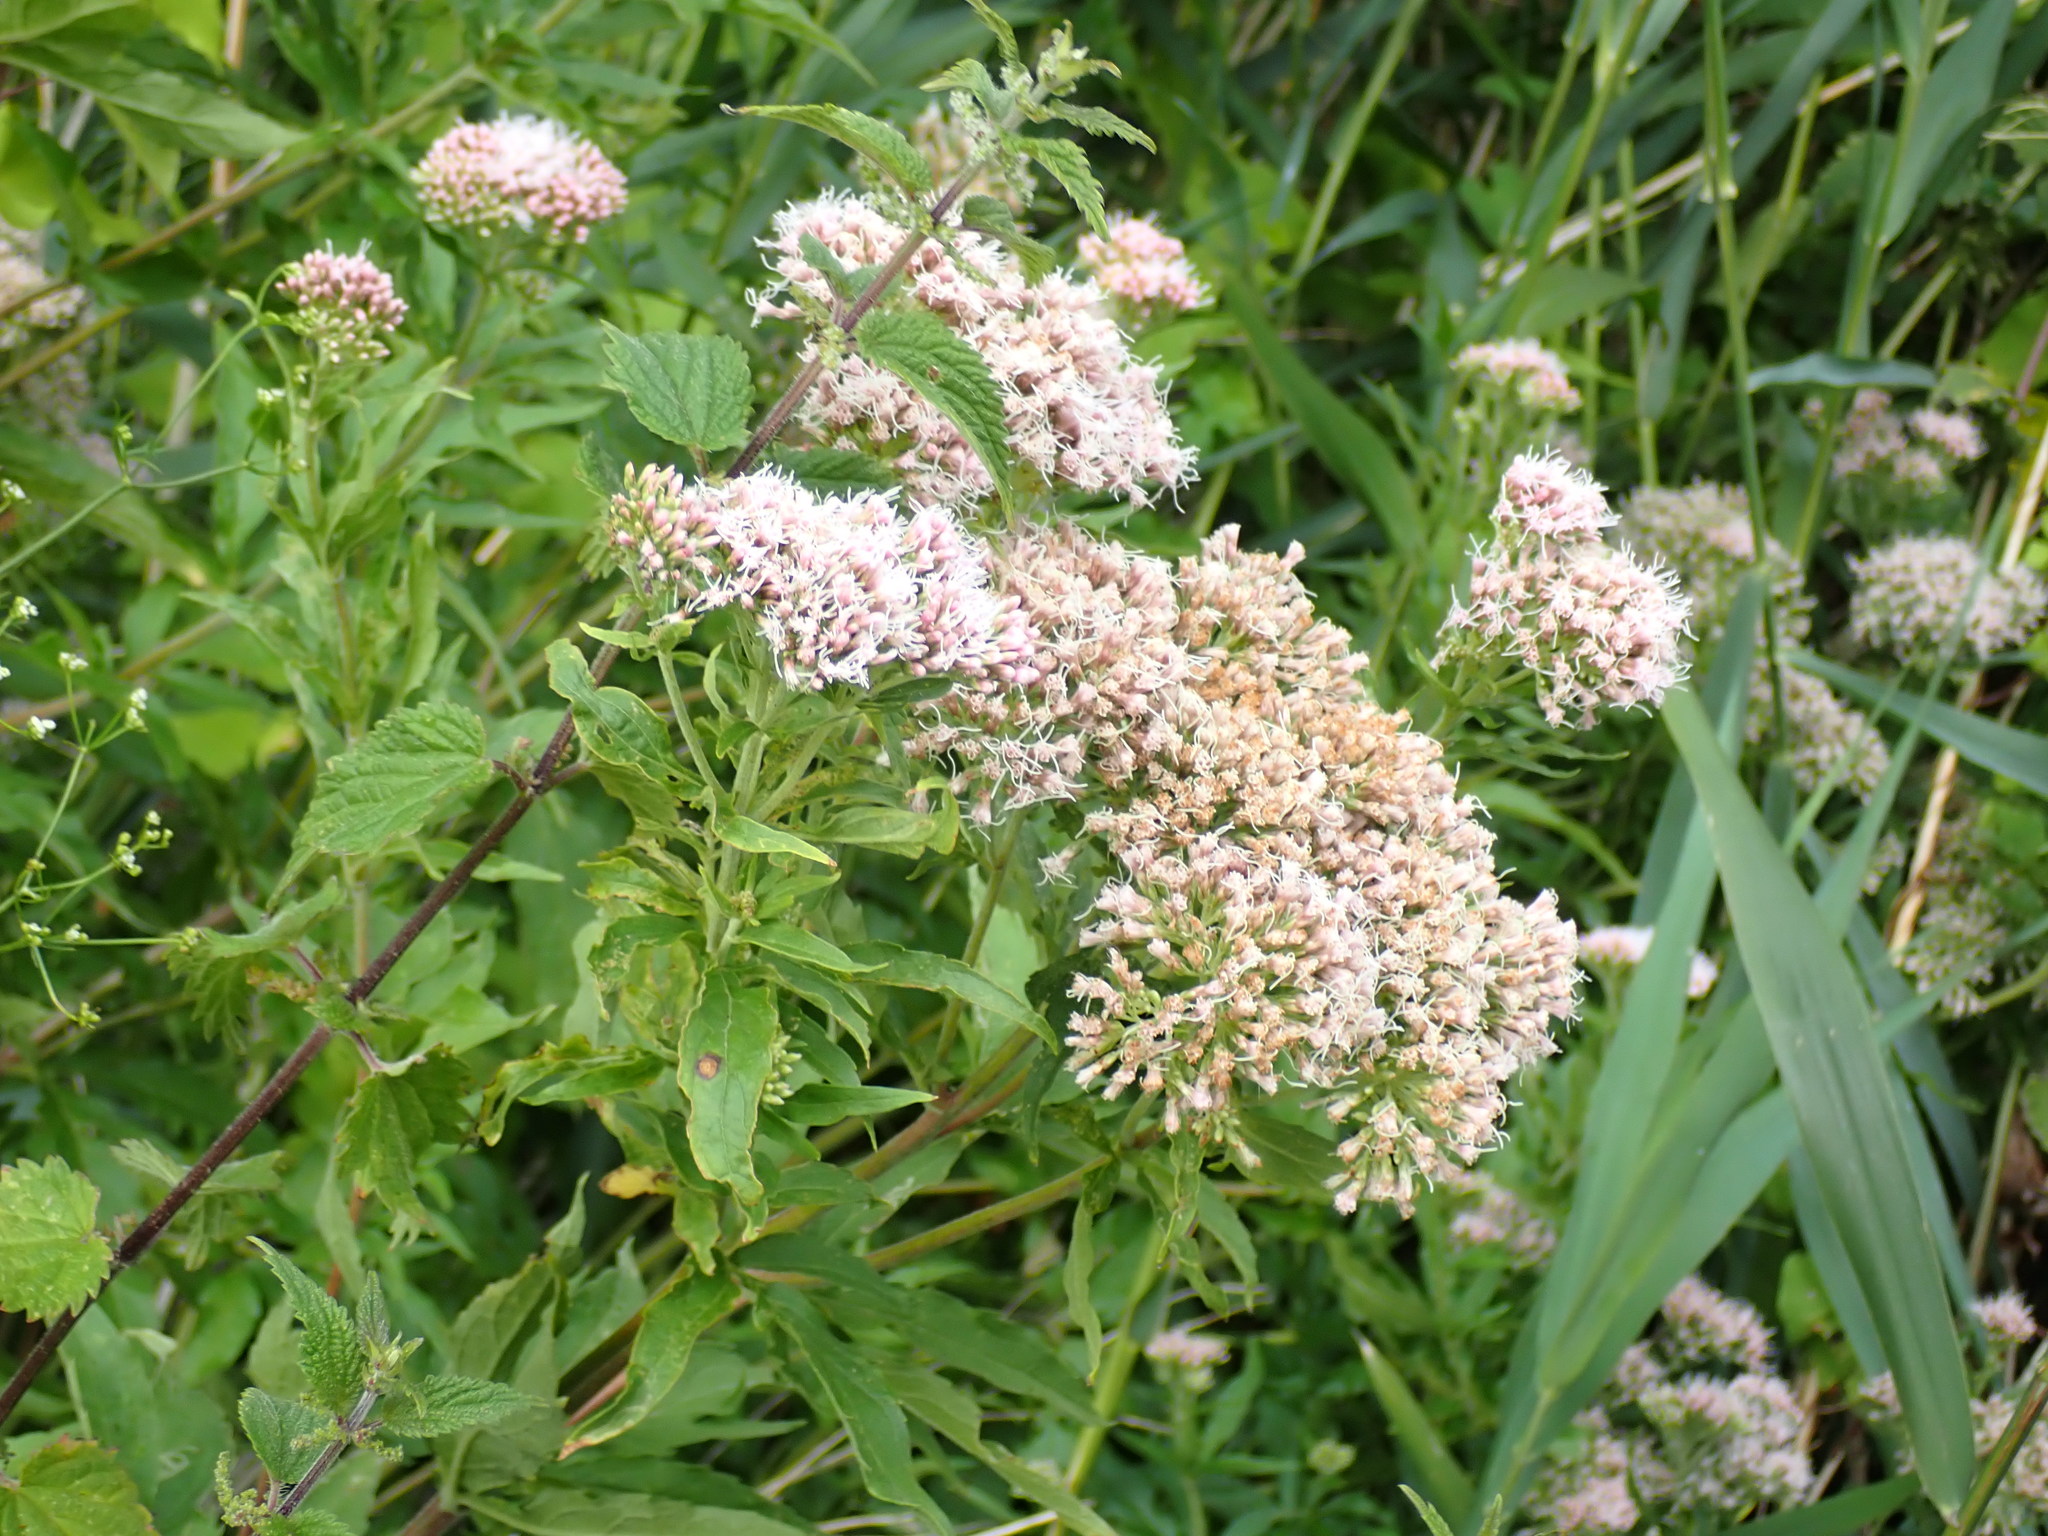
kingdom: Plantae
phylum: Tracheophyta
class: Magnoliopsida
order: Asterales
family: Asteraceae
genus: Eupatorium
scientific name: Eupatorium cannabinum
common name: Hemp-agrimony
